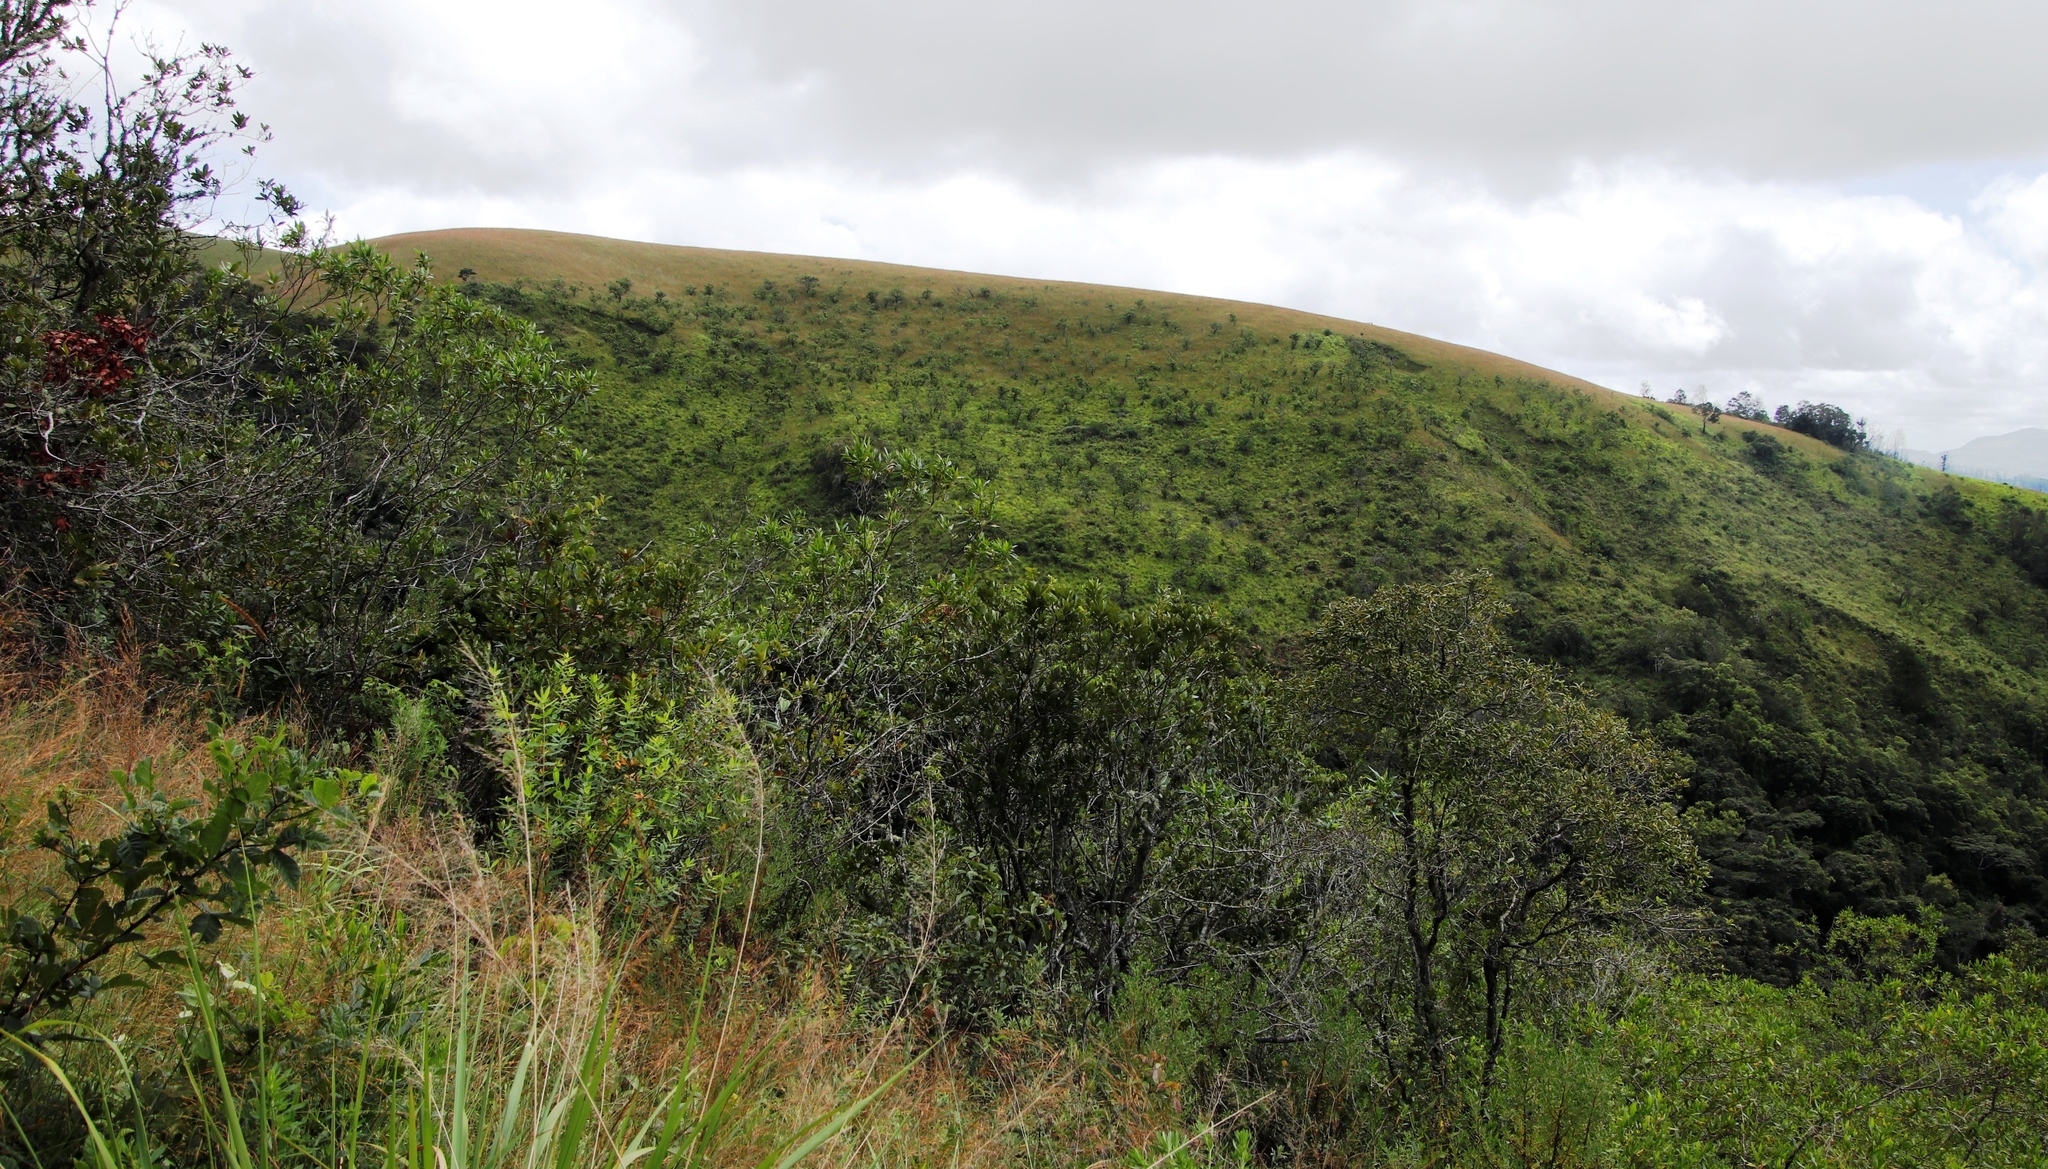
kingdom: Plantae
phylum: Tracheophyta
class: Magnoliopsida
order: Proteales
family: Proteaceae
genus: Protea
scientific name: Protea caffra
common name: Common sugarbush
